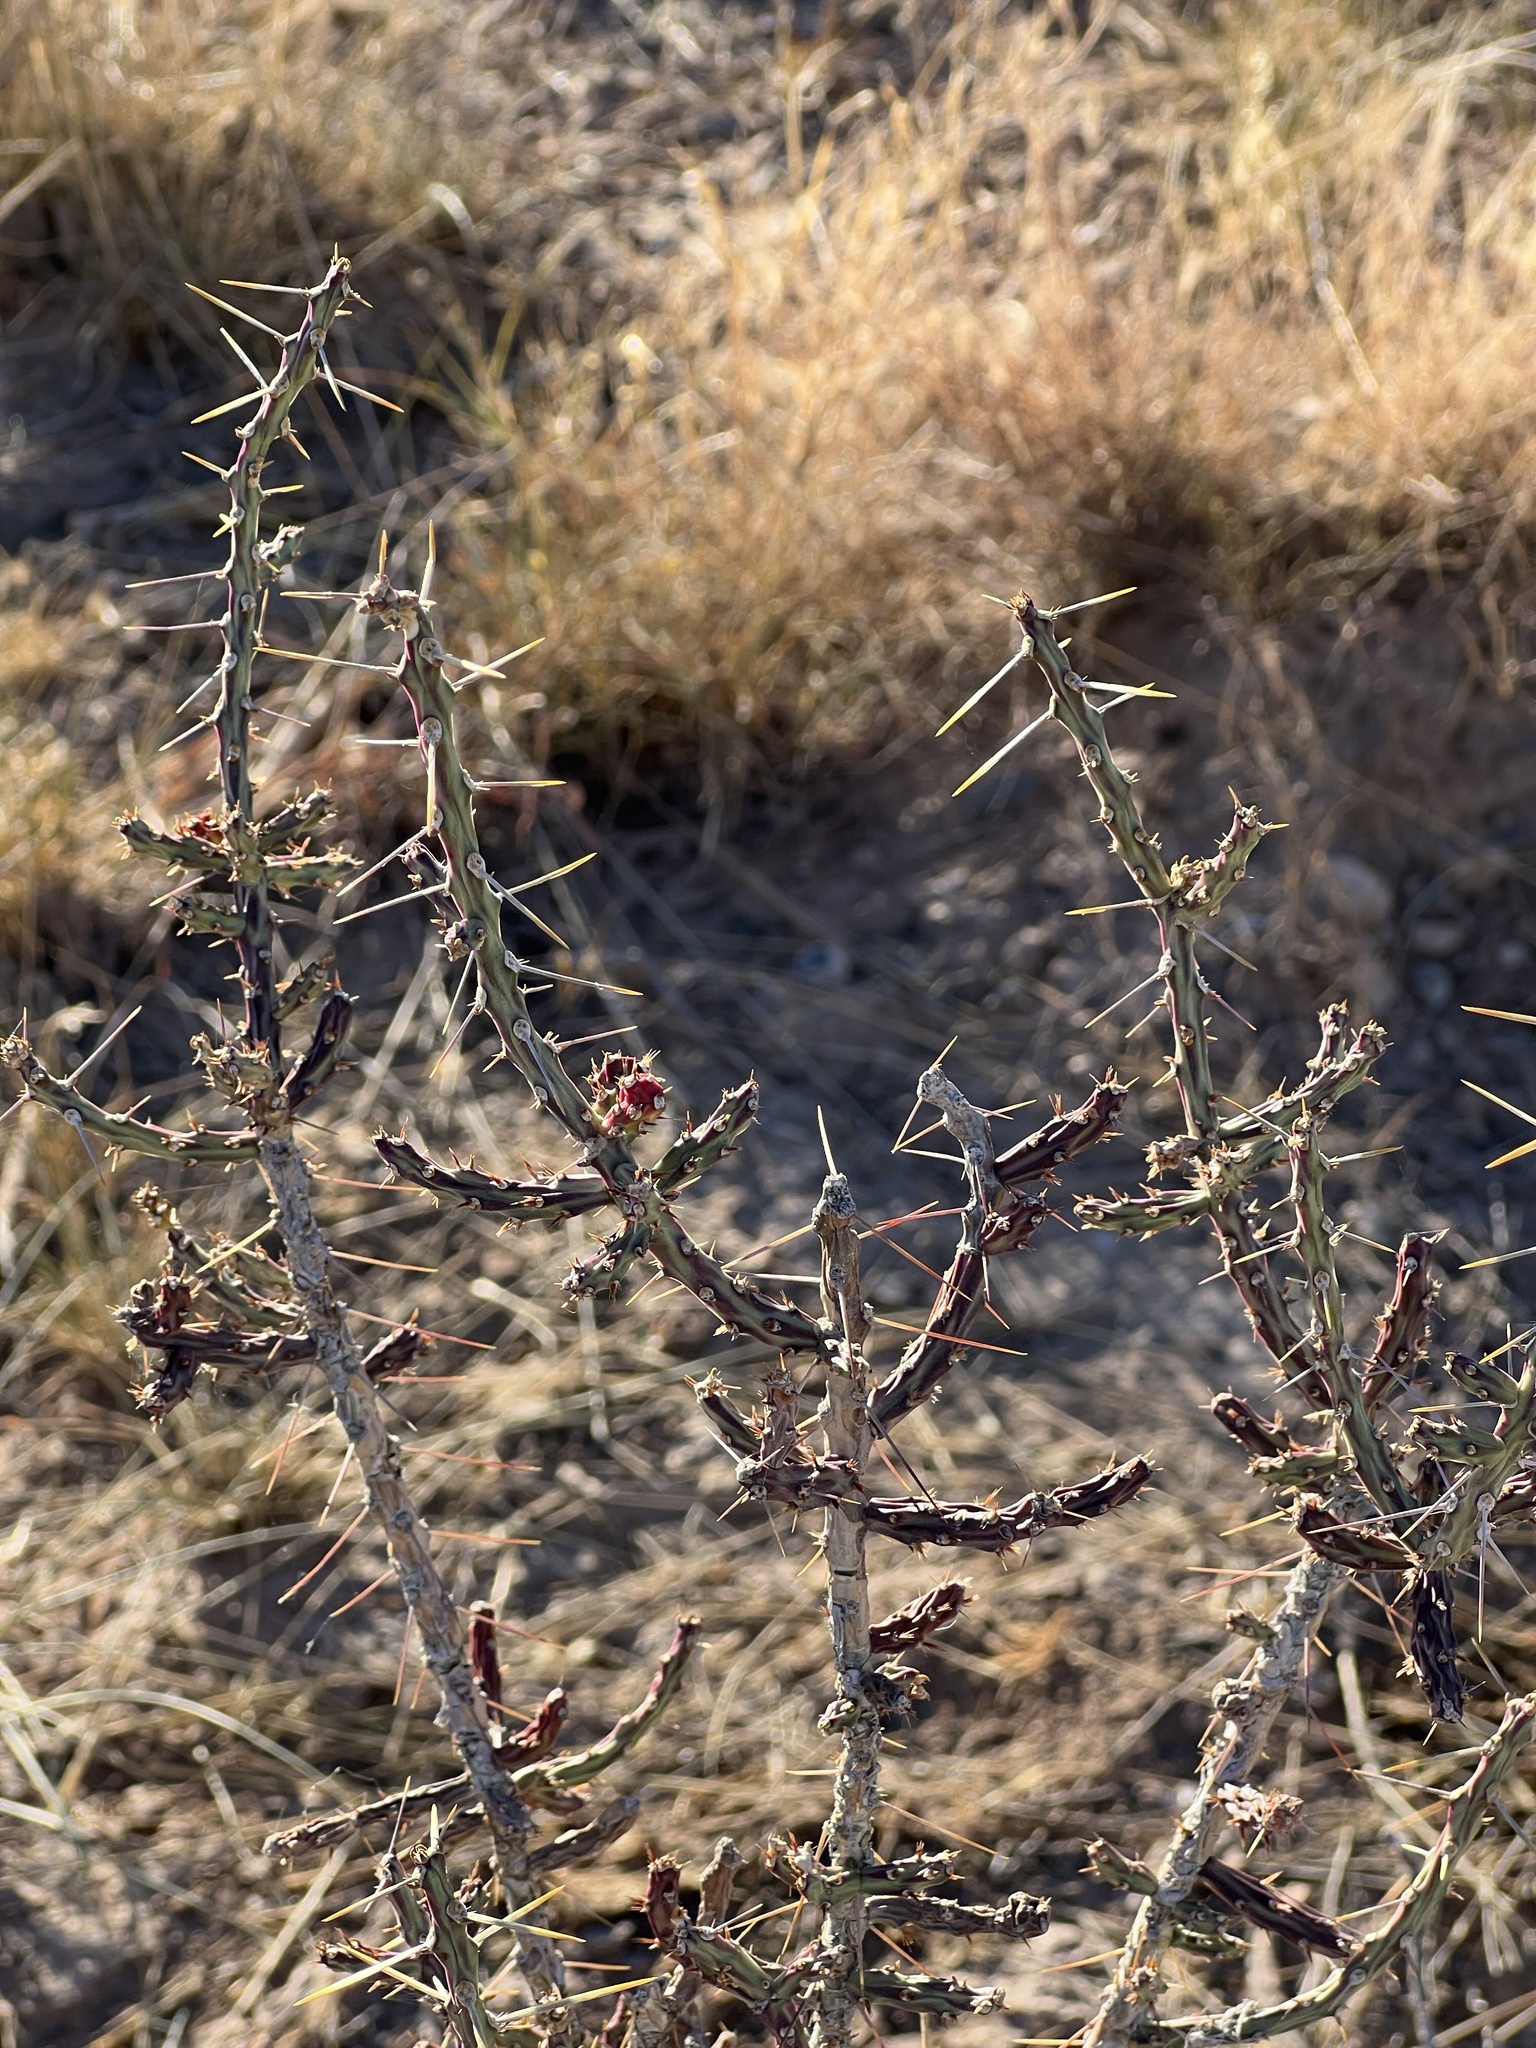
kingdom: Plantae
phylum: Tracheophyta
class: Magnoliopsida
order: Caryophyllales
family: Cactaceae
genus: Cylindropuntia
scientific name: Cylindropuntia leptocaulis
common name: Christmas cactus
